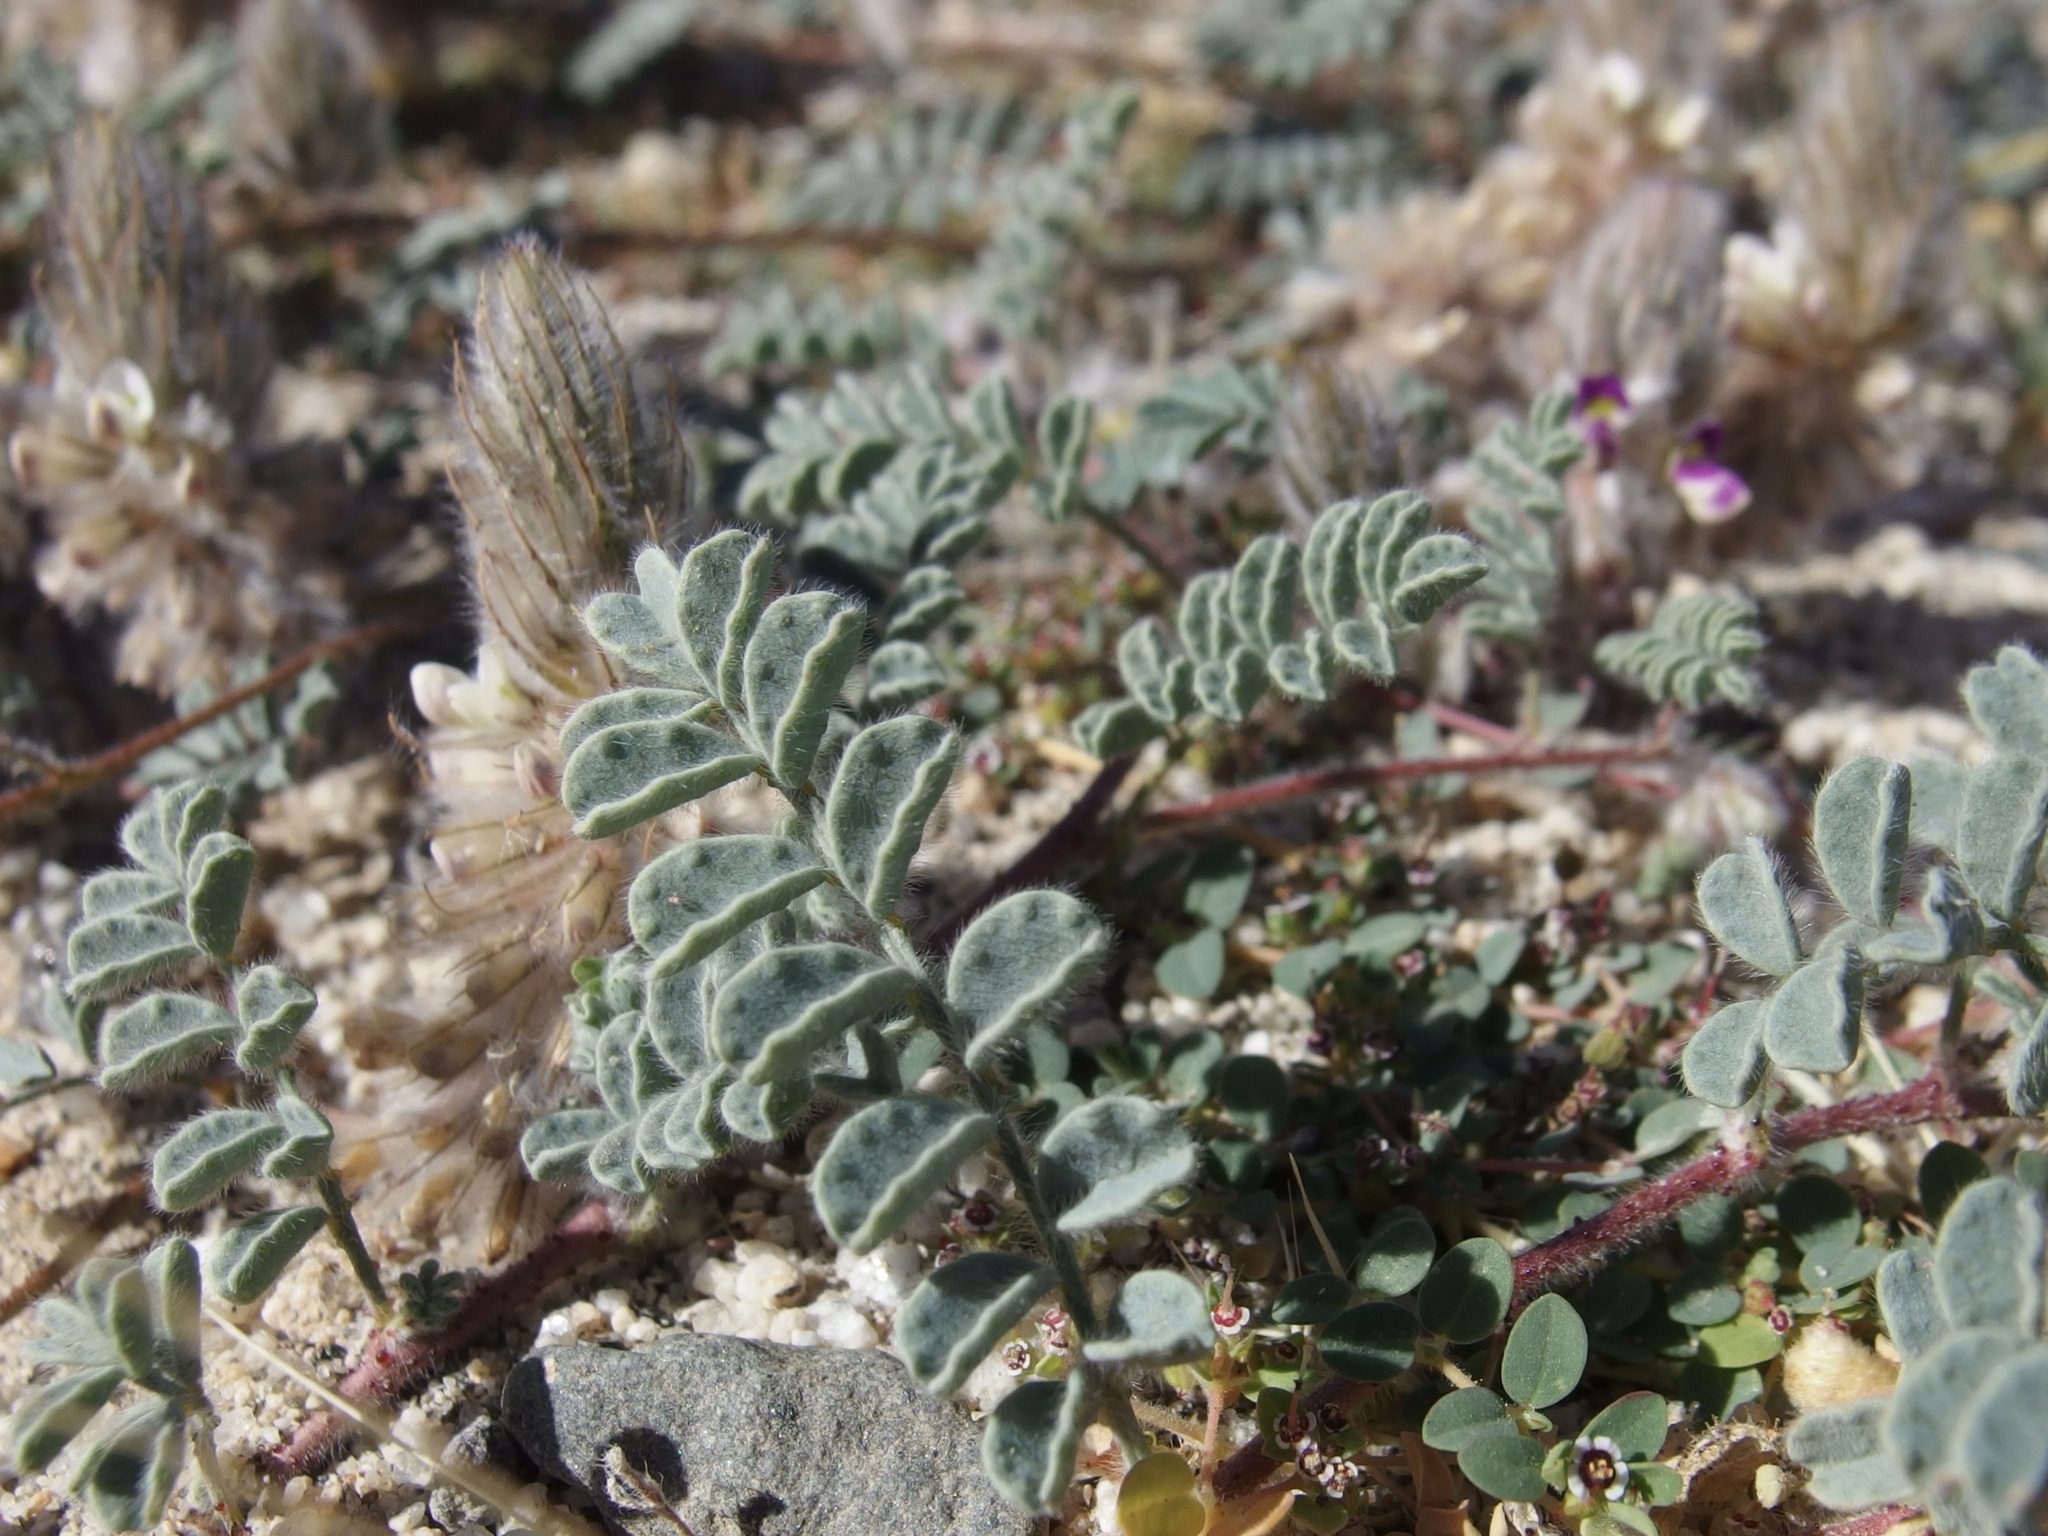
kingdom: Plantae
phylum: Tracheophyta
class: Magnoliopsida
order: Fabales
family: Fabaceae
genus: Dalea
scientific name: Dalea mollissima
